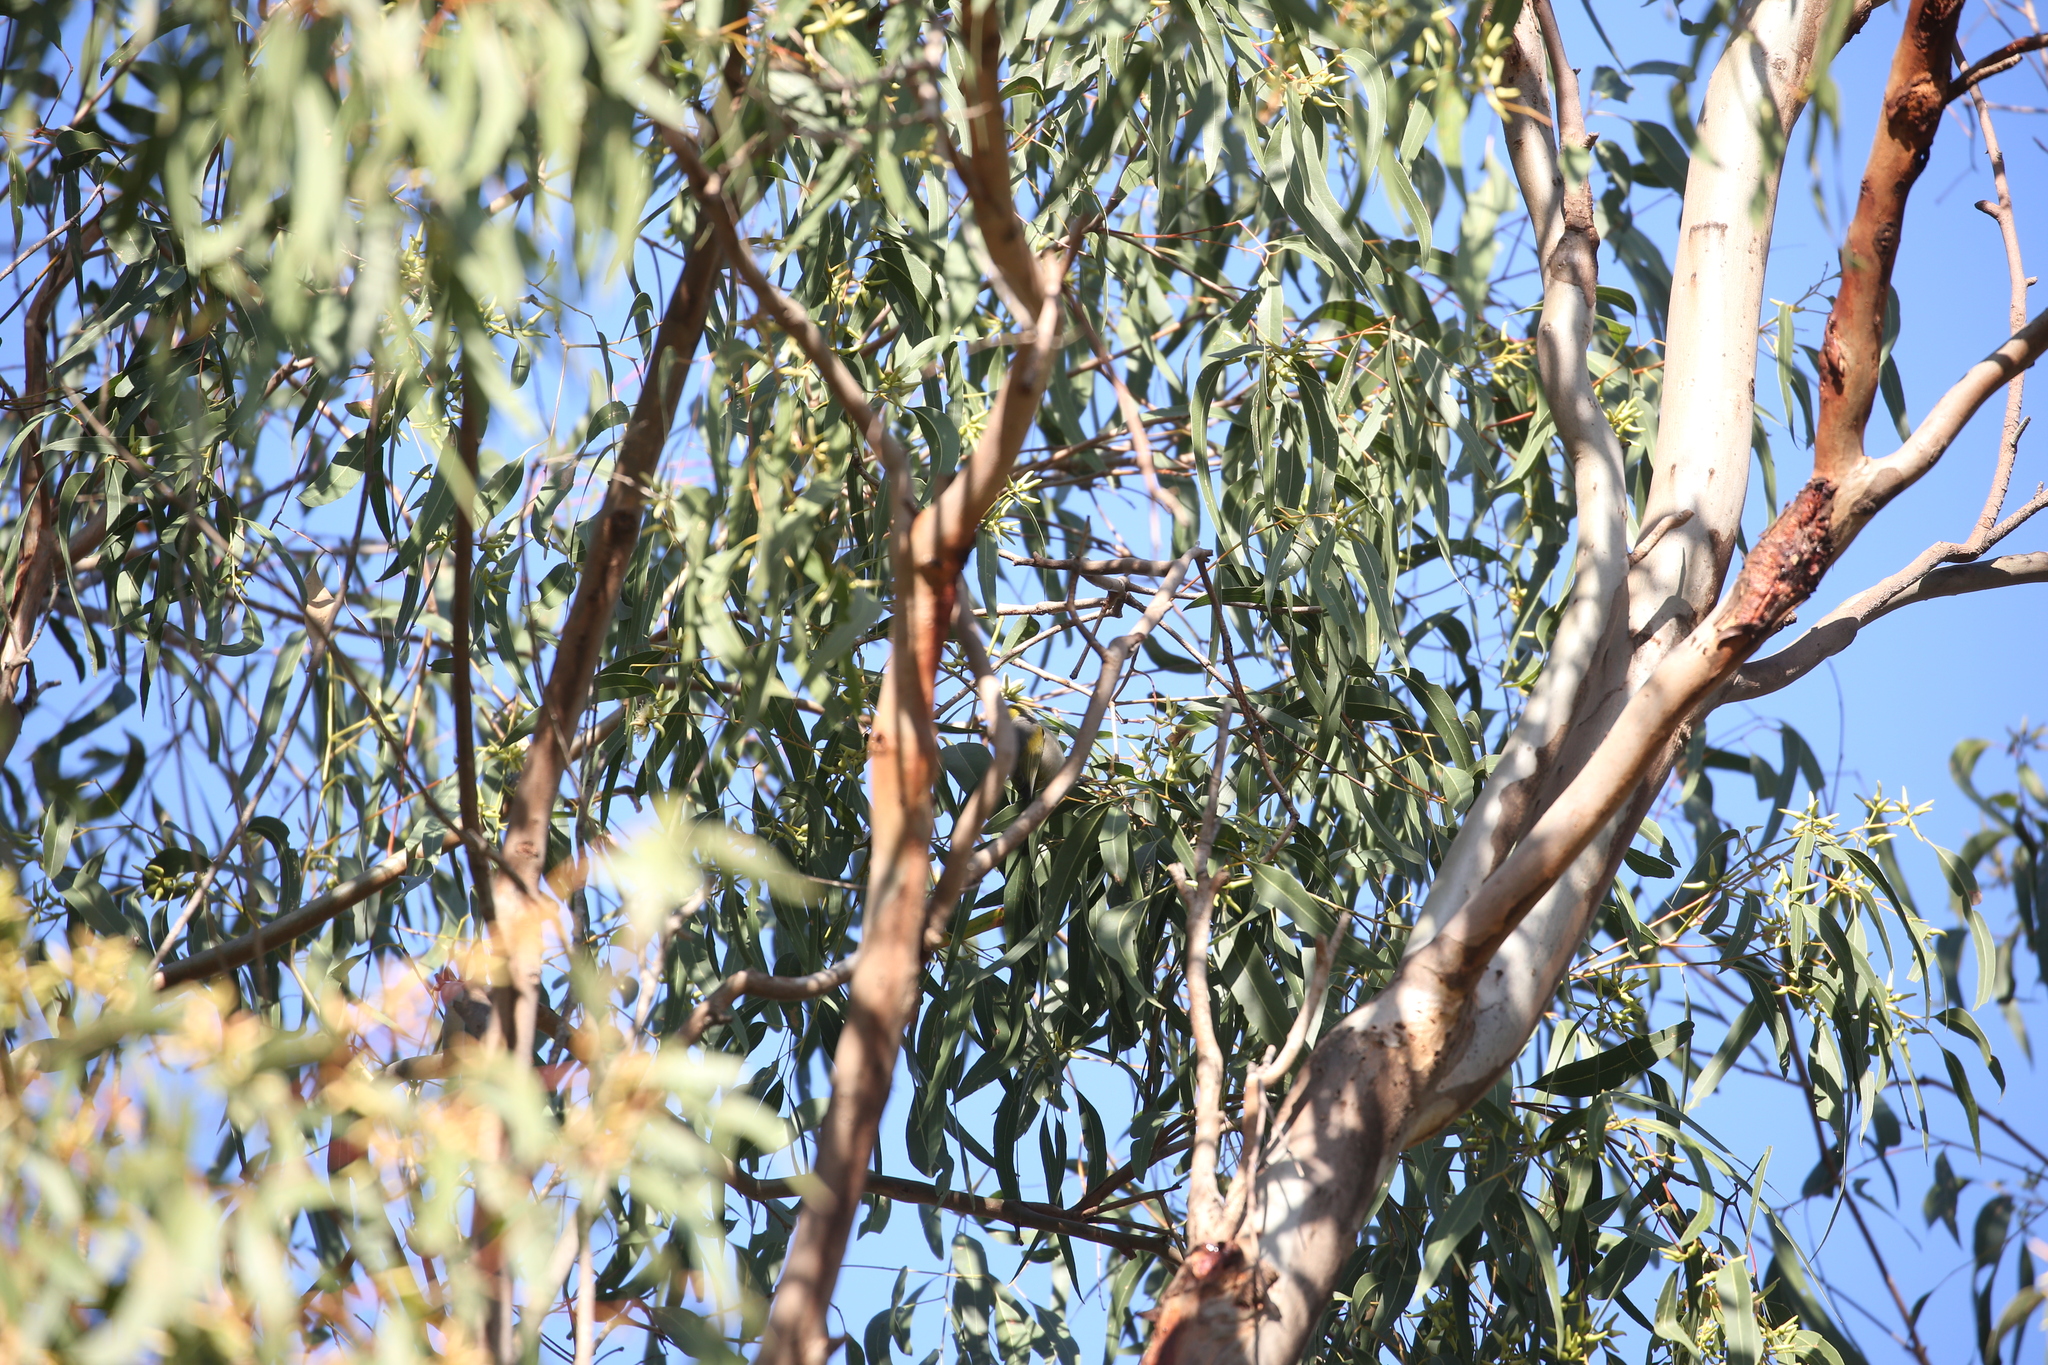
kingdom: Animalia
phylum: Chordata
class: Aves
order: Passeriformes
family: Zosteropidae
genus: Zosterops
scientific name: Zosterops lateralis
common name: Silvereye
